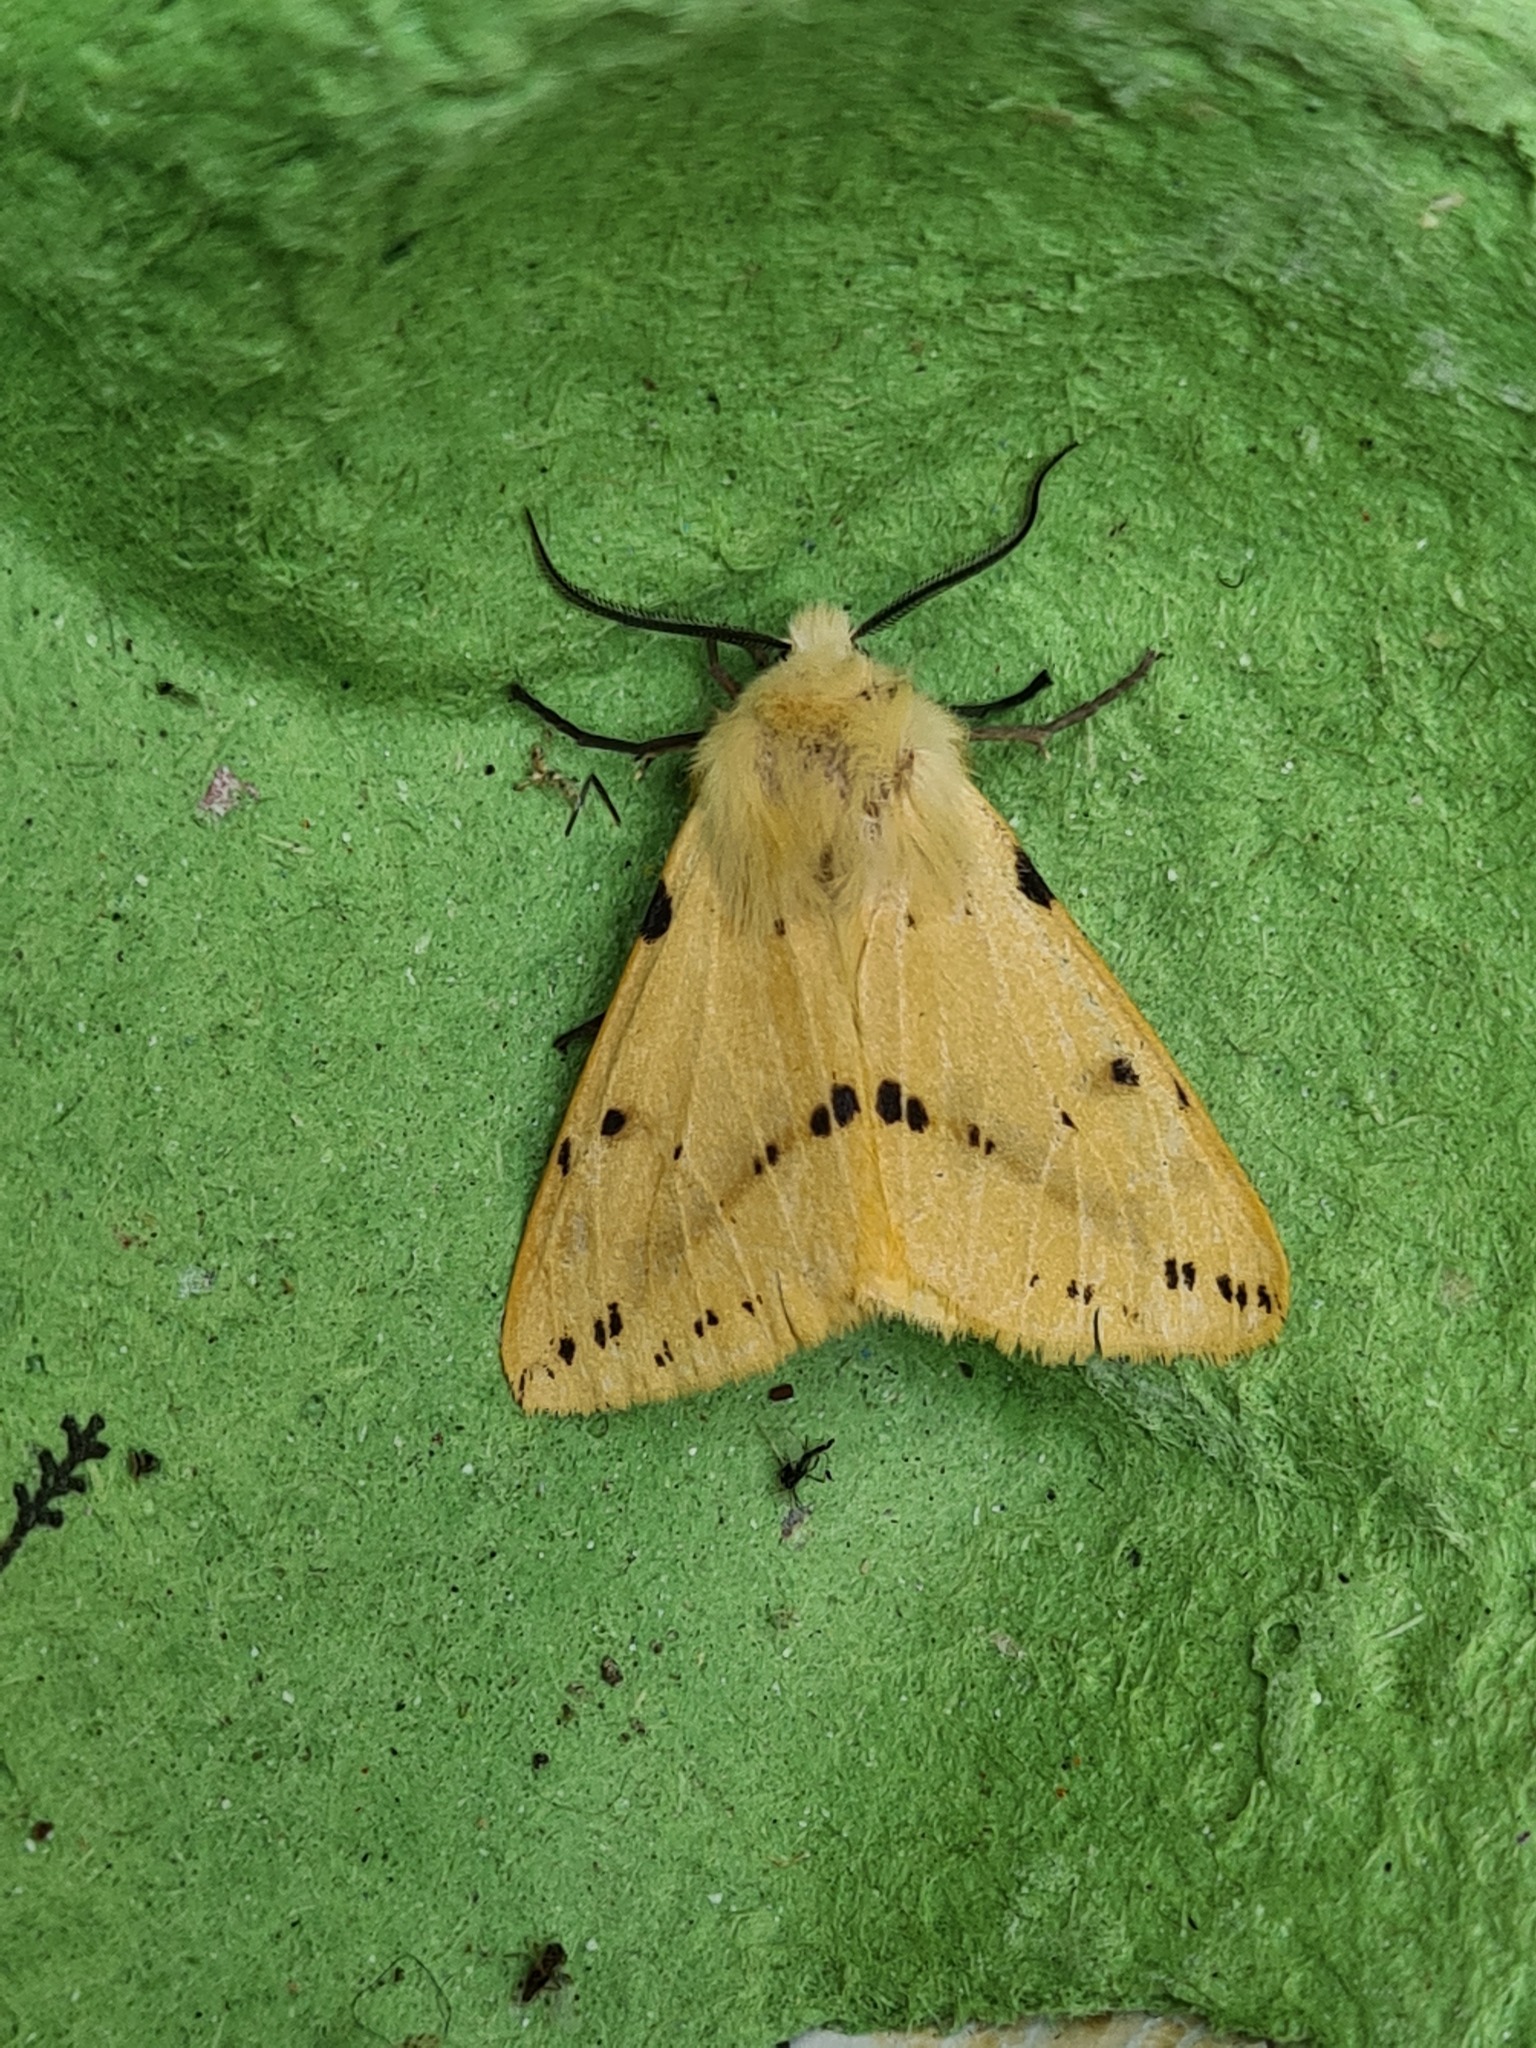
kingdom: Animalia
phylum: Arthropoda
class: Insecta
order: Lepidoptera
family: Erebidae
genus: Spilarctia
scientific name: Spilarctia lutea
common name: Buff ermine
